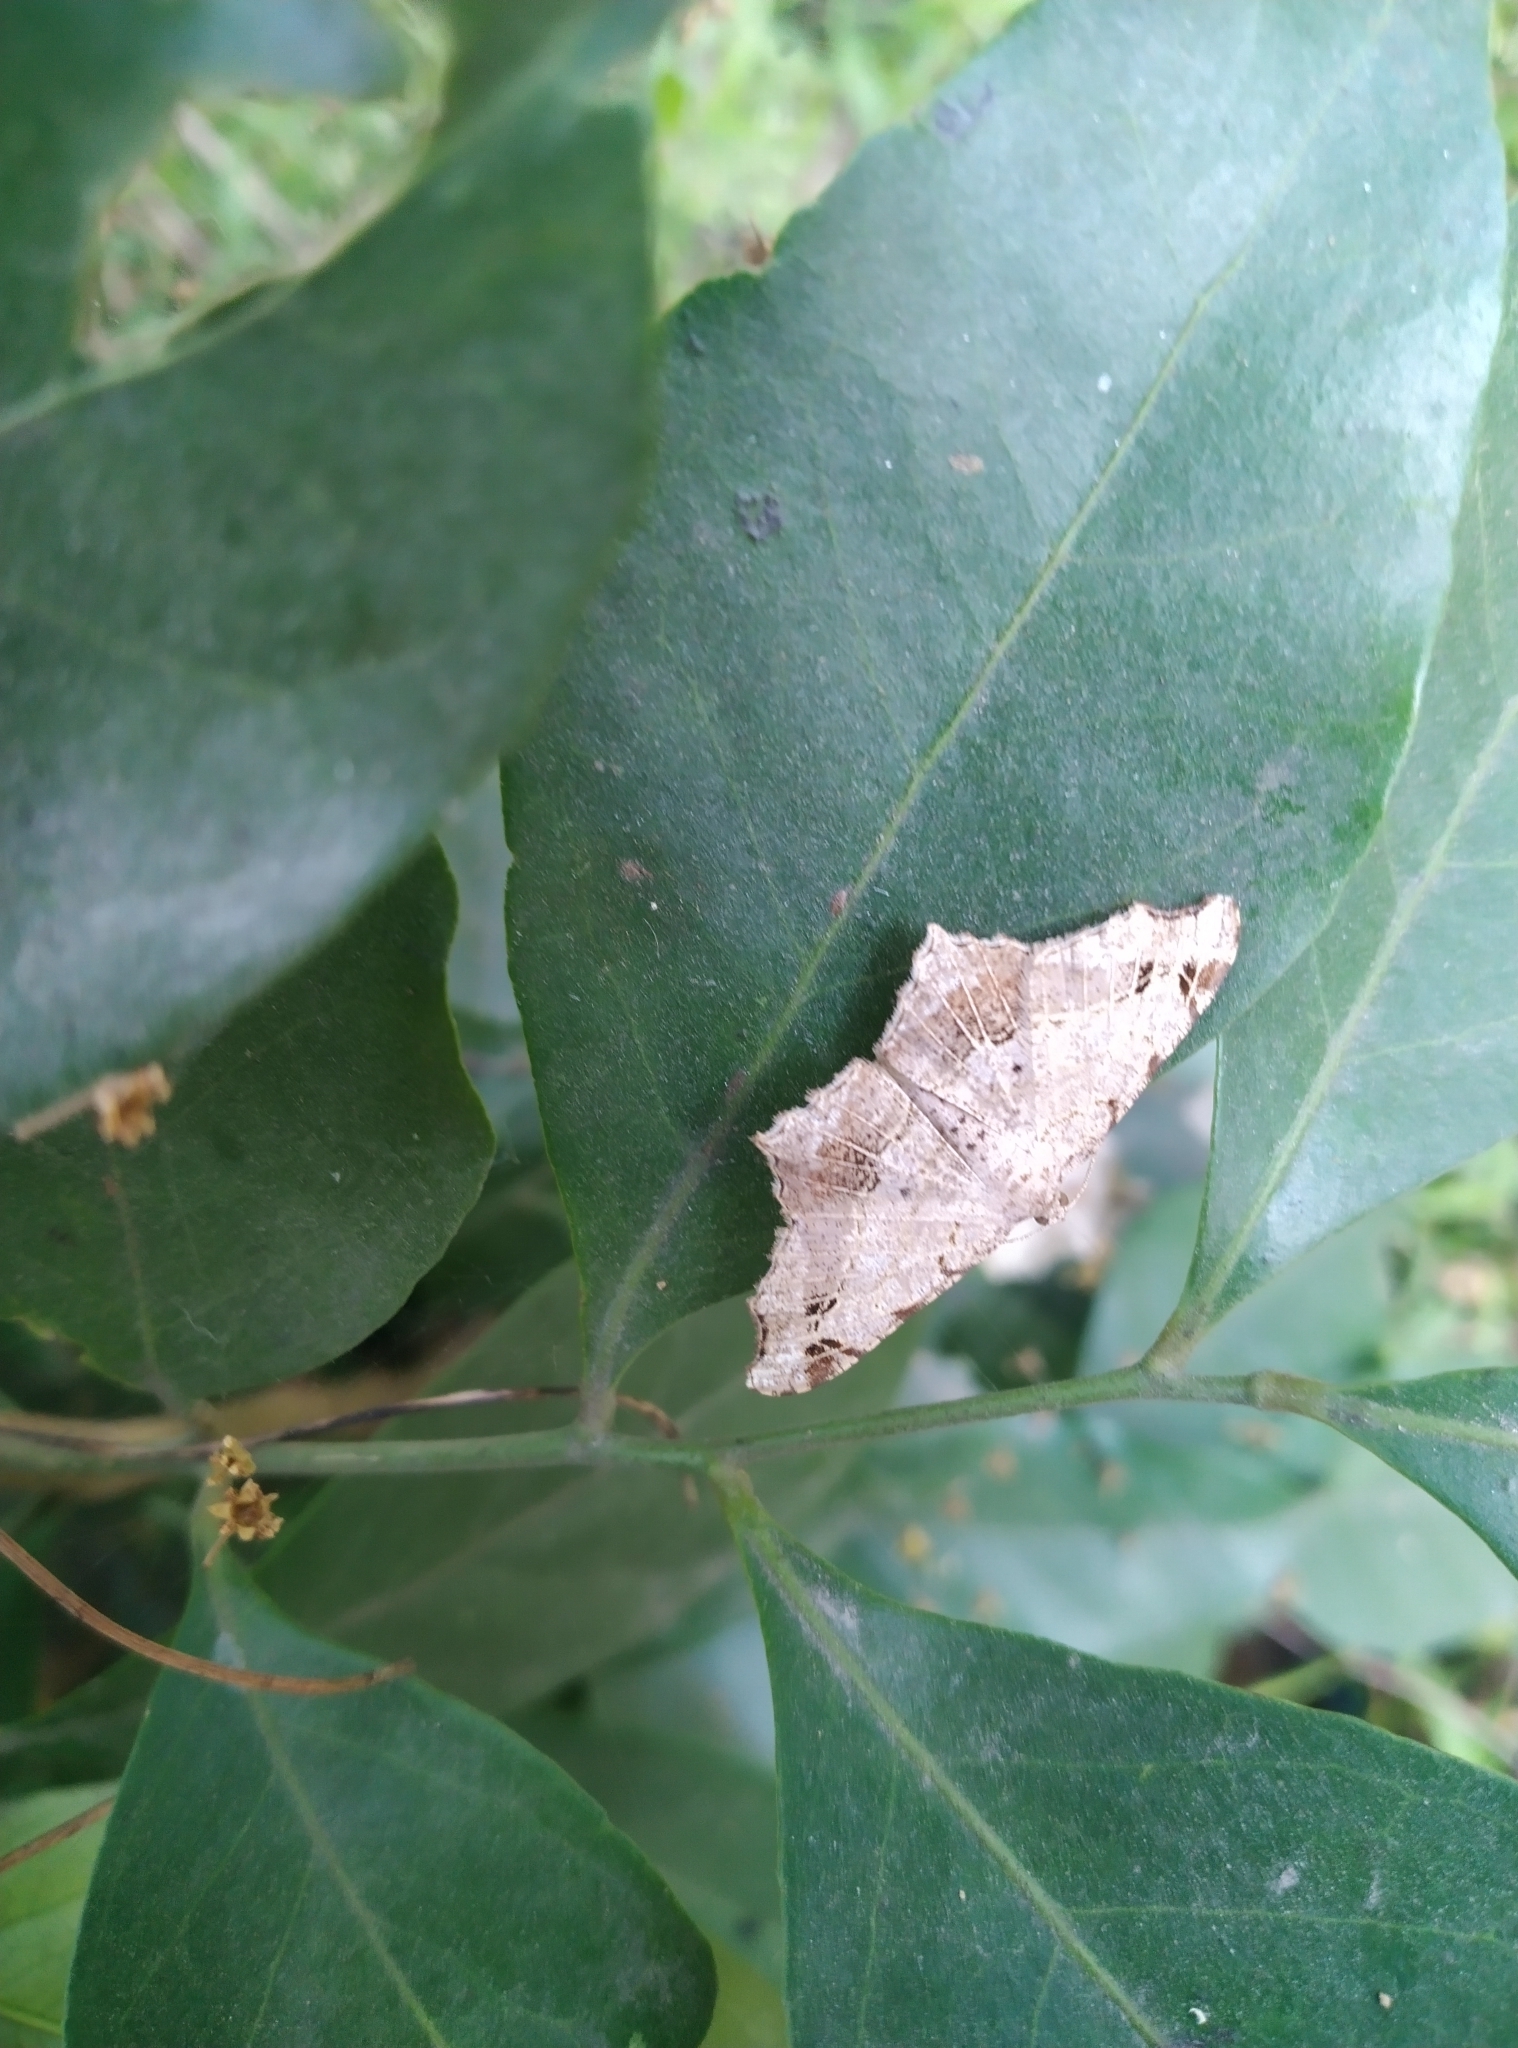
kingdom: Animalia
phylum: Arthropoda
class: Insecta
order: Lepidoptera
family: Geometridae
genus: Chiasmia
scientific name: Chiasmia emersaria
